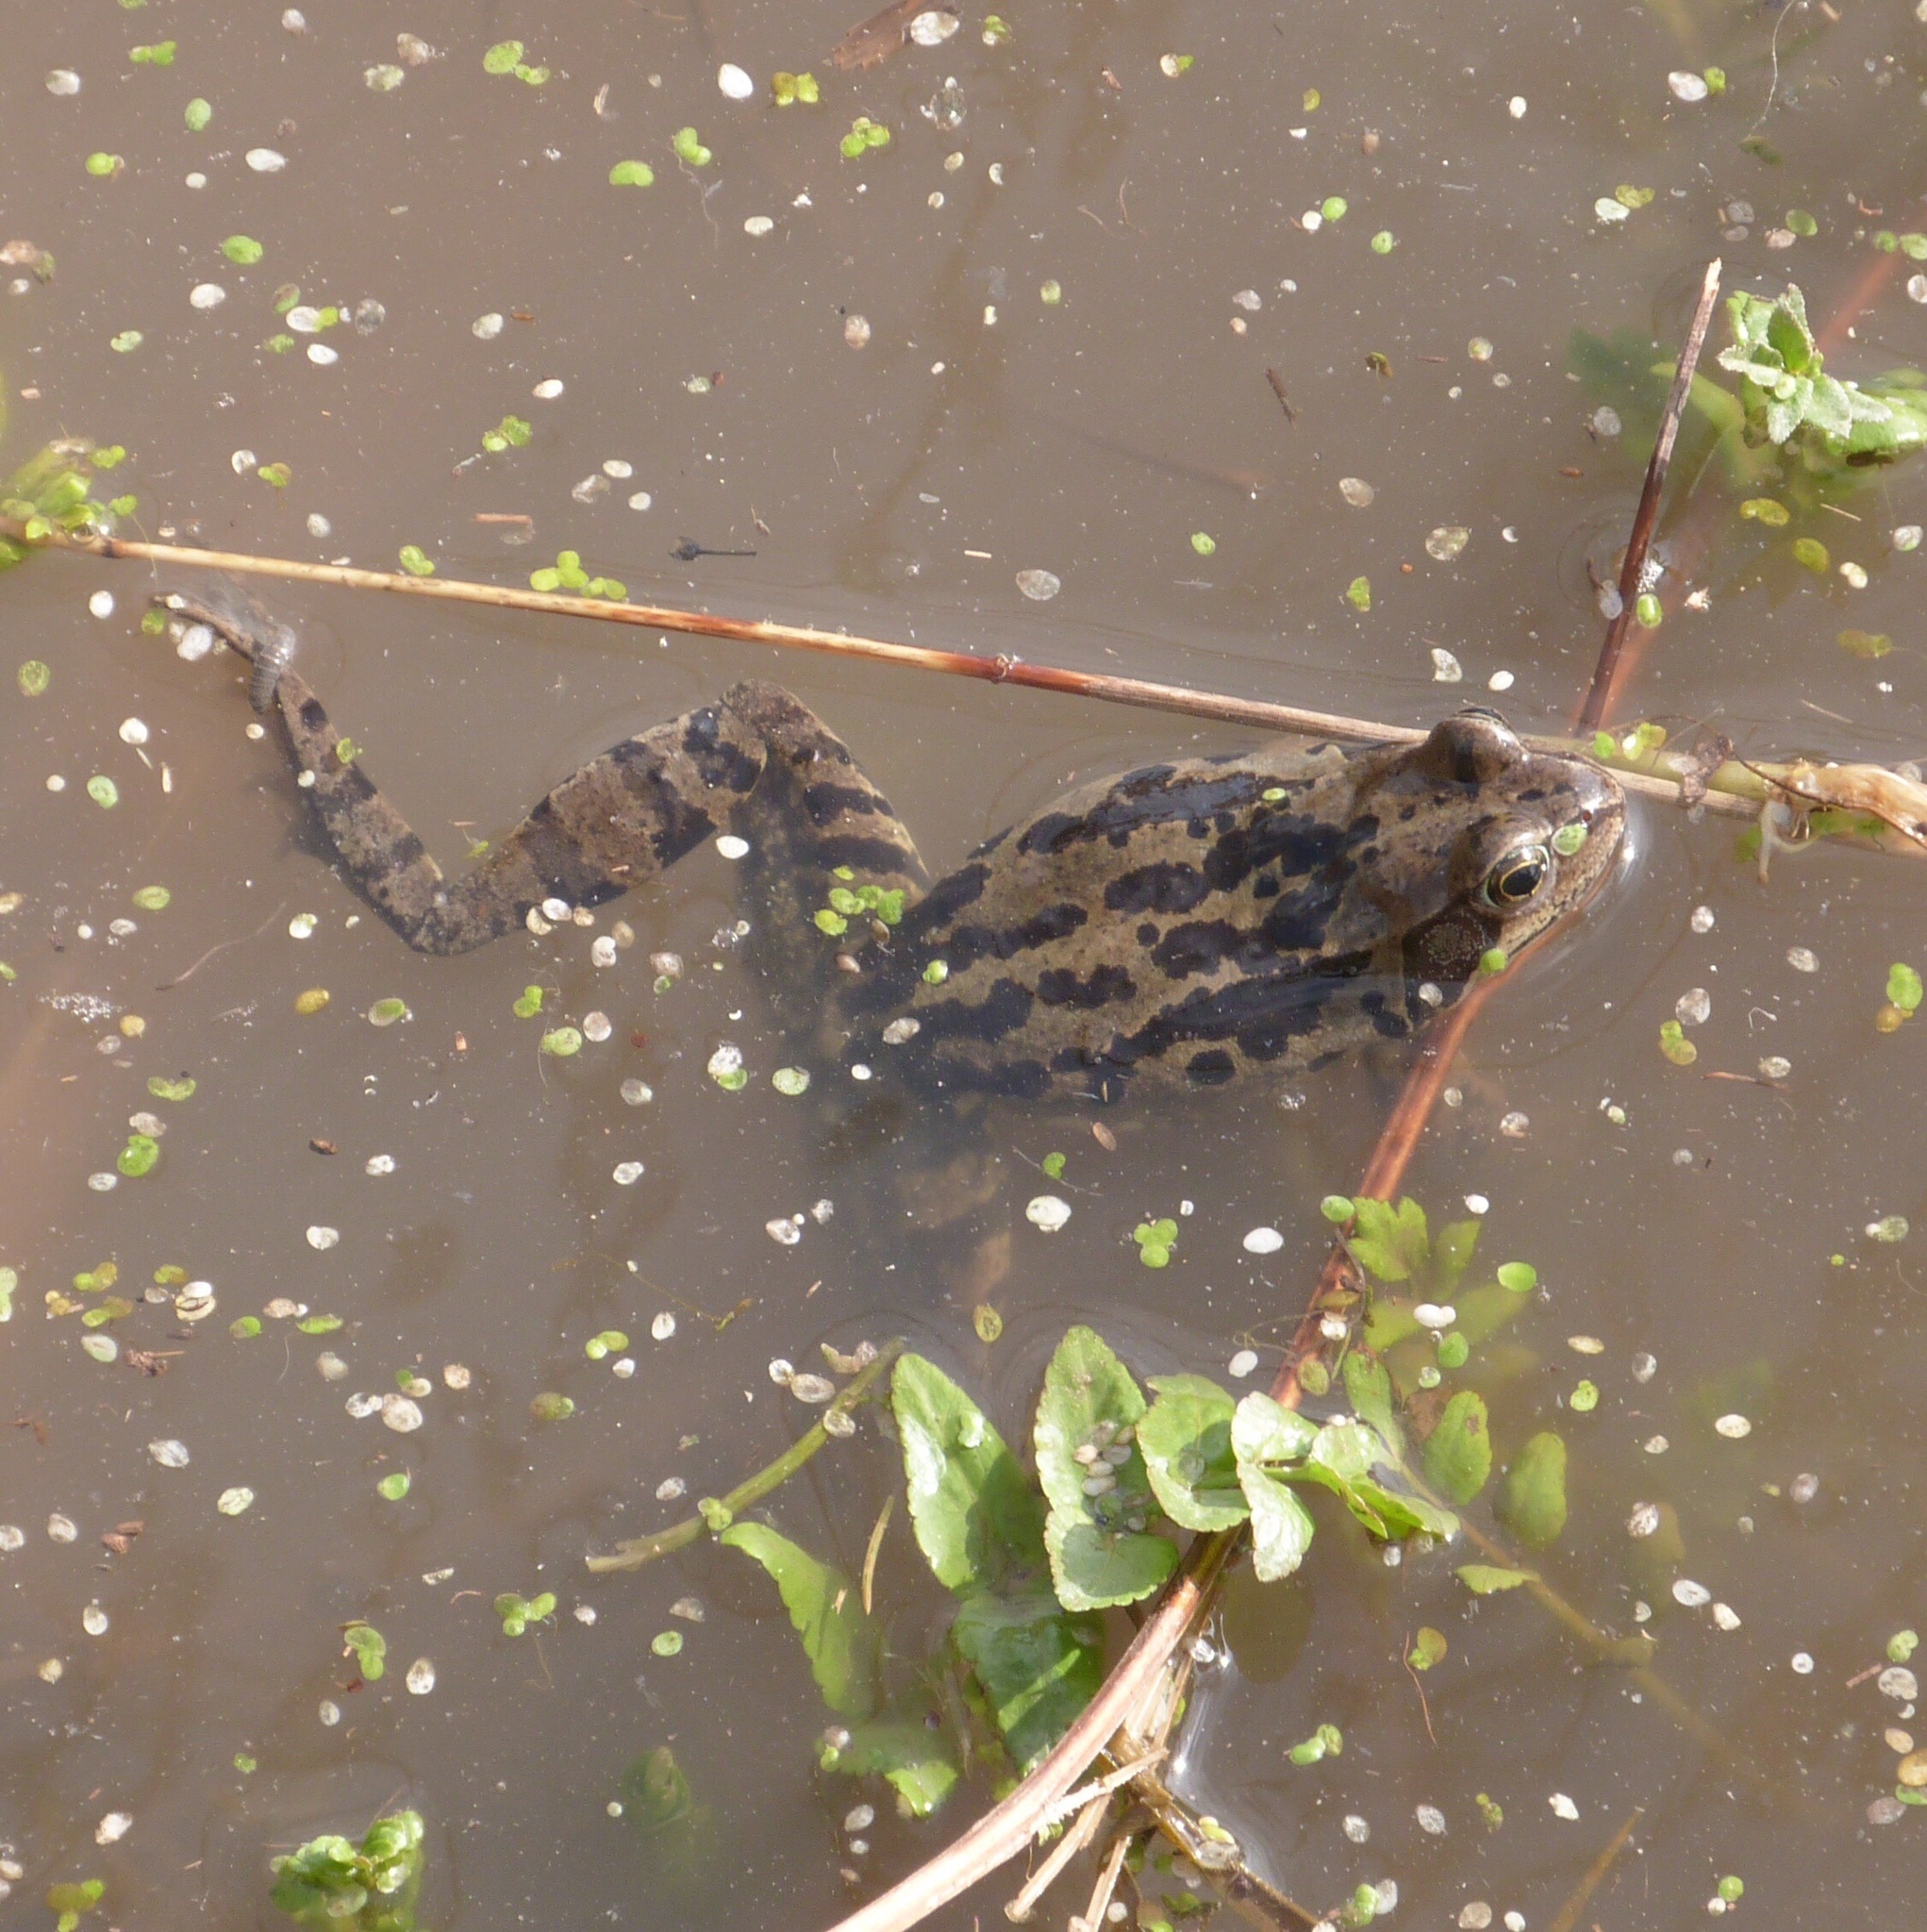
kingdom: Animalia
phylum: Chordata
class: Amphibia
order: Anura
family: Ranidae
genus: Rana
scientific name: Rana temporaria
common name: Common frog
